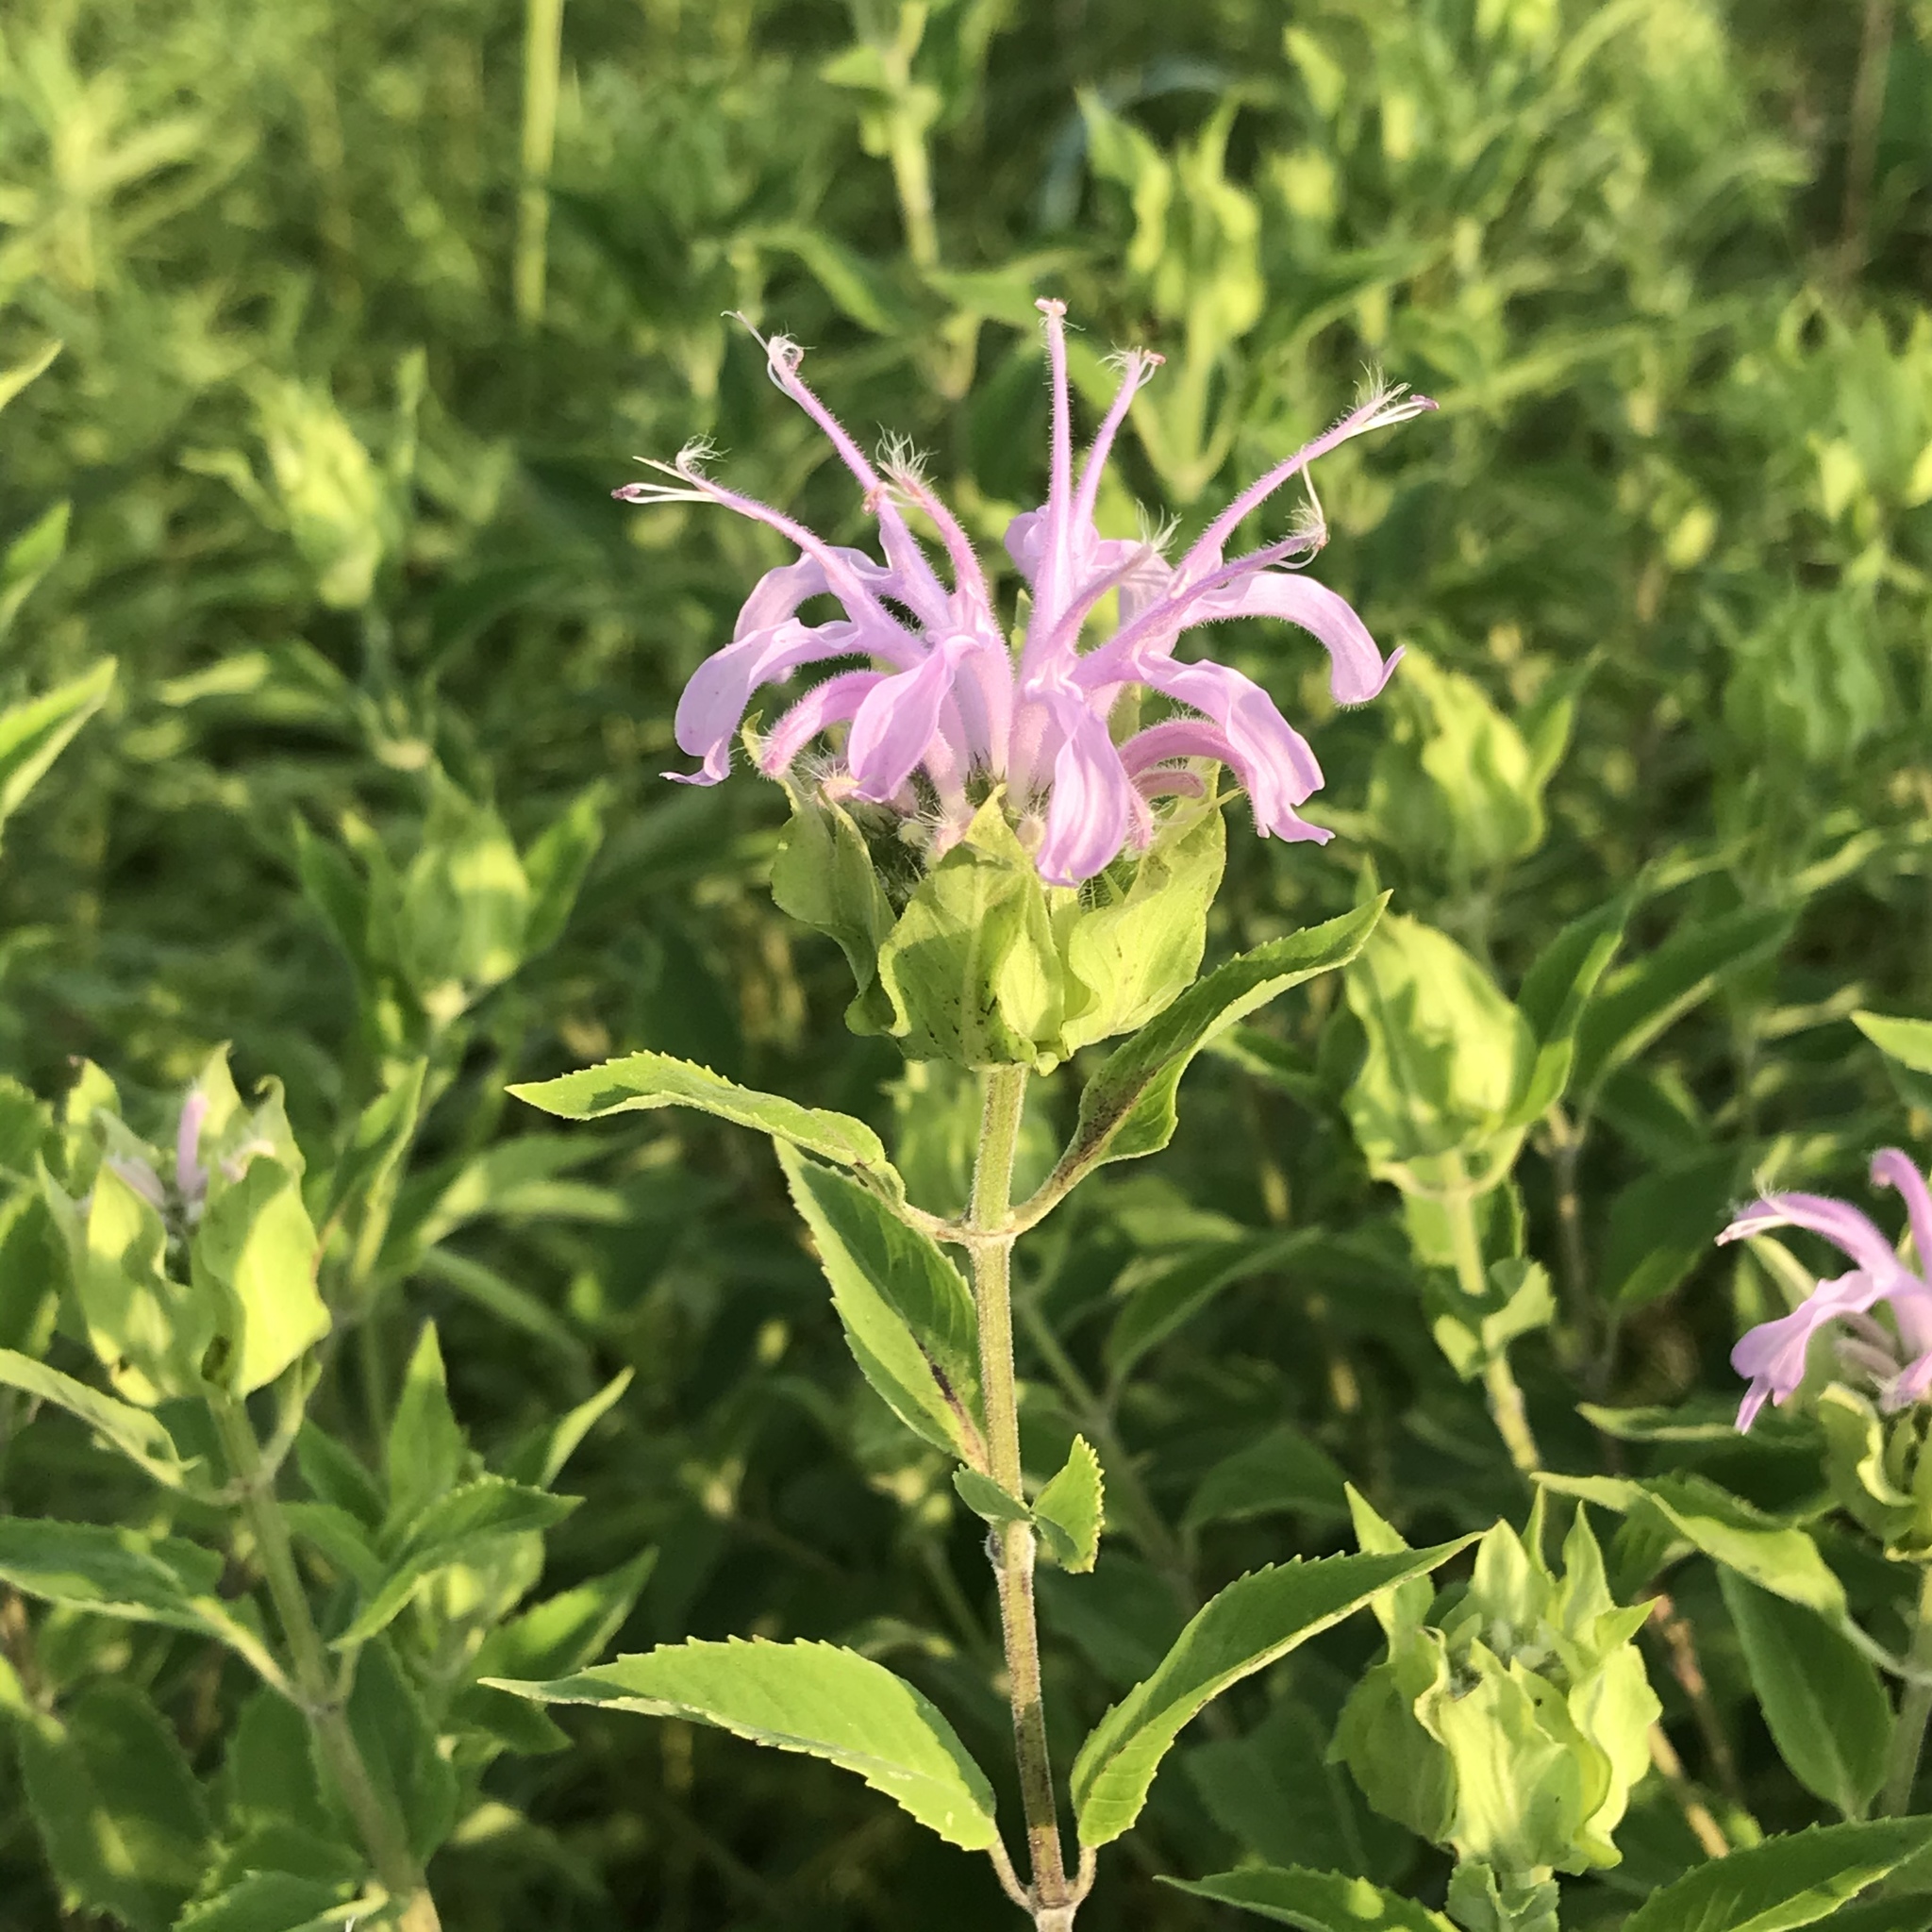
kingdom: Plantae
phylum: Tracheophyta
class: Magnoliopsida
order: Lamiales
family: Lamiaceae
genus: Monarda
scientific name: Monarda fistulosa
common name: Purple beebalm
